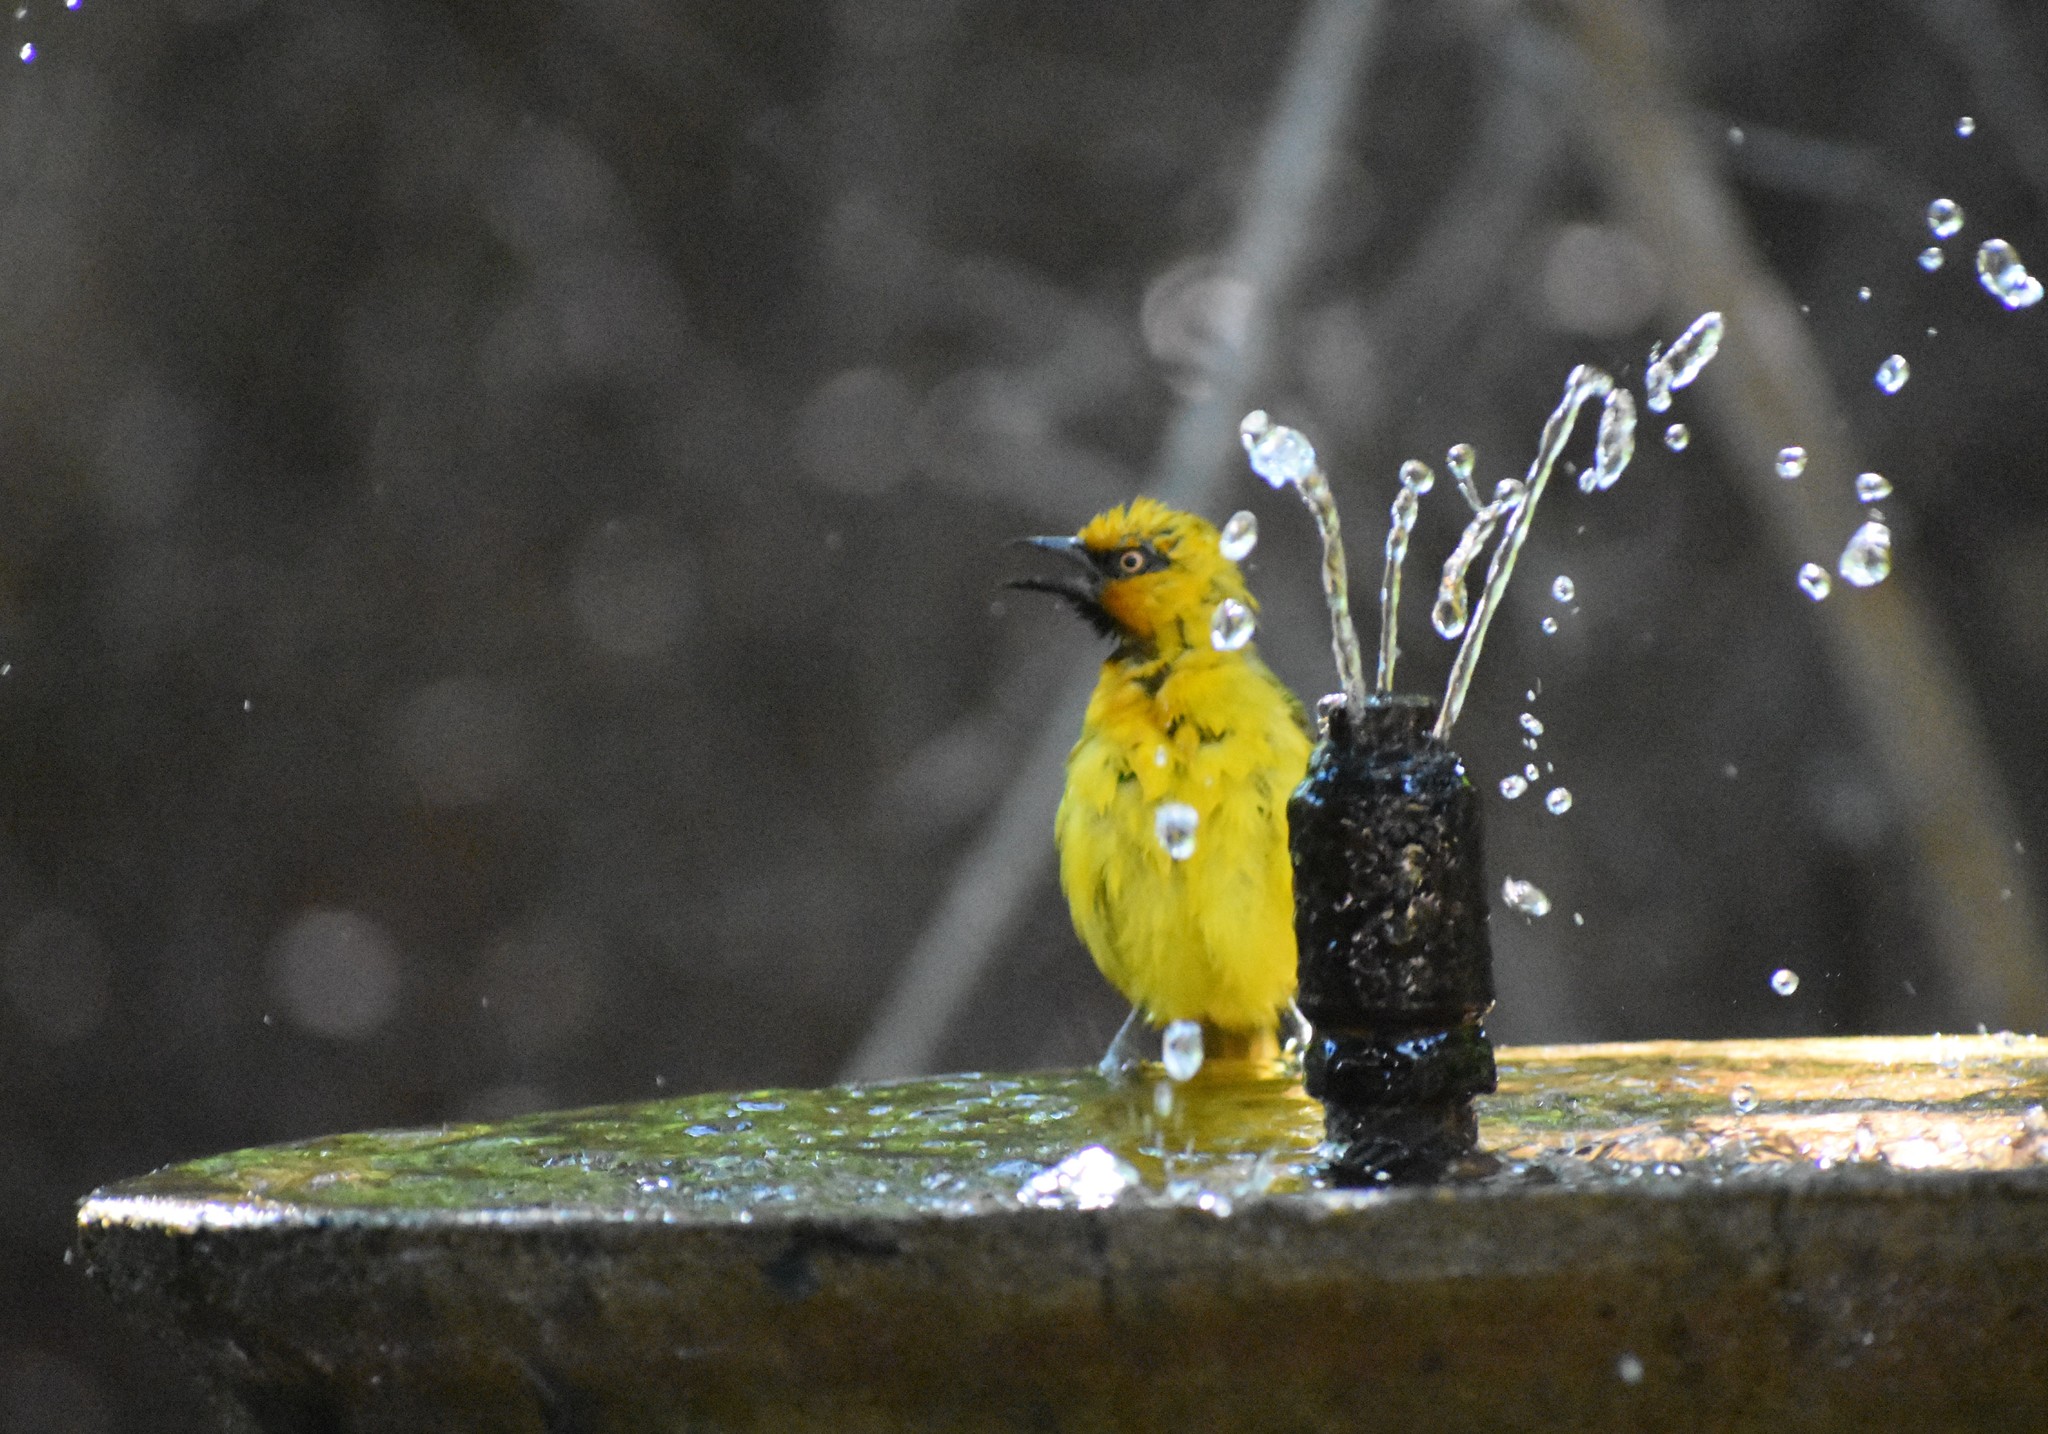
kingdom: Animalia
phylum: Chordata
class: Aves
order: Passeriformes
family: Ploceidae
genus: Ploceus
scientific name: Ploceus ocularis
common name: Spectacled weaver
